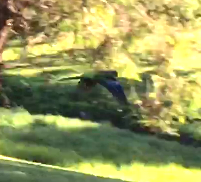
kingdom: Animalia
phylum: Chordata
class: Aves
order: Psittaciformes
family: Psittacidae
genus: Platycercus
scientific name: Platycercus eximius
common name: Eastern rosella
